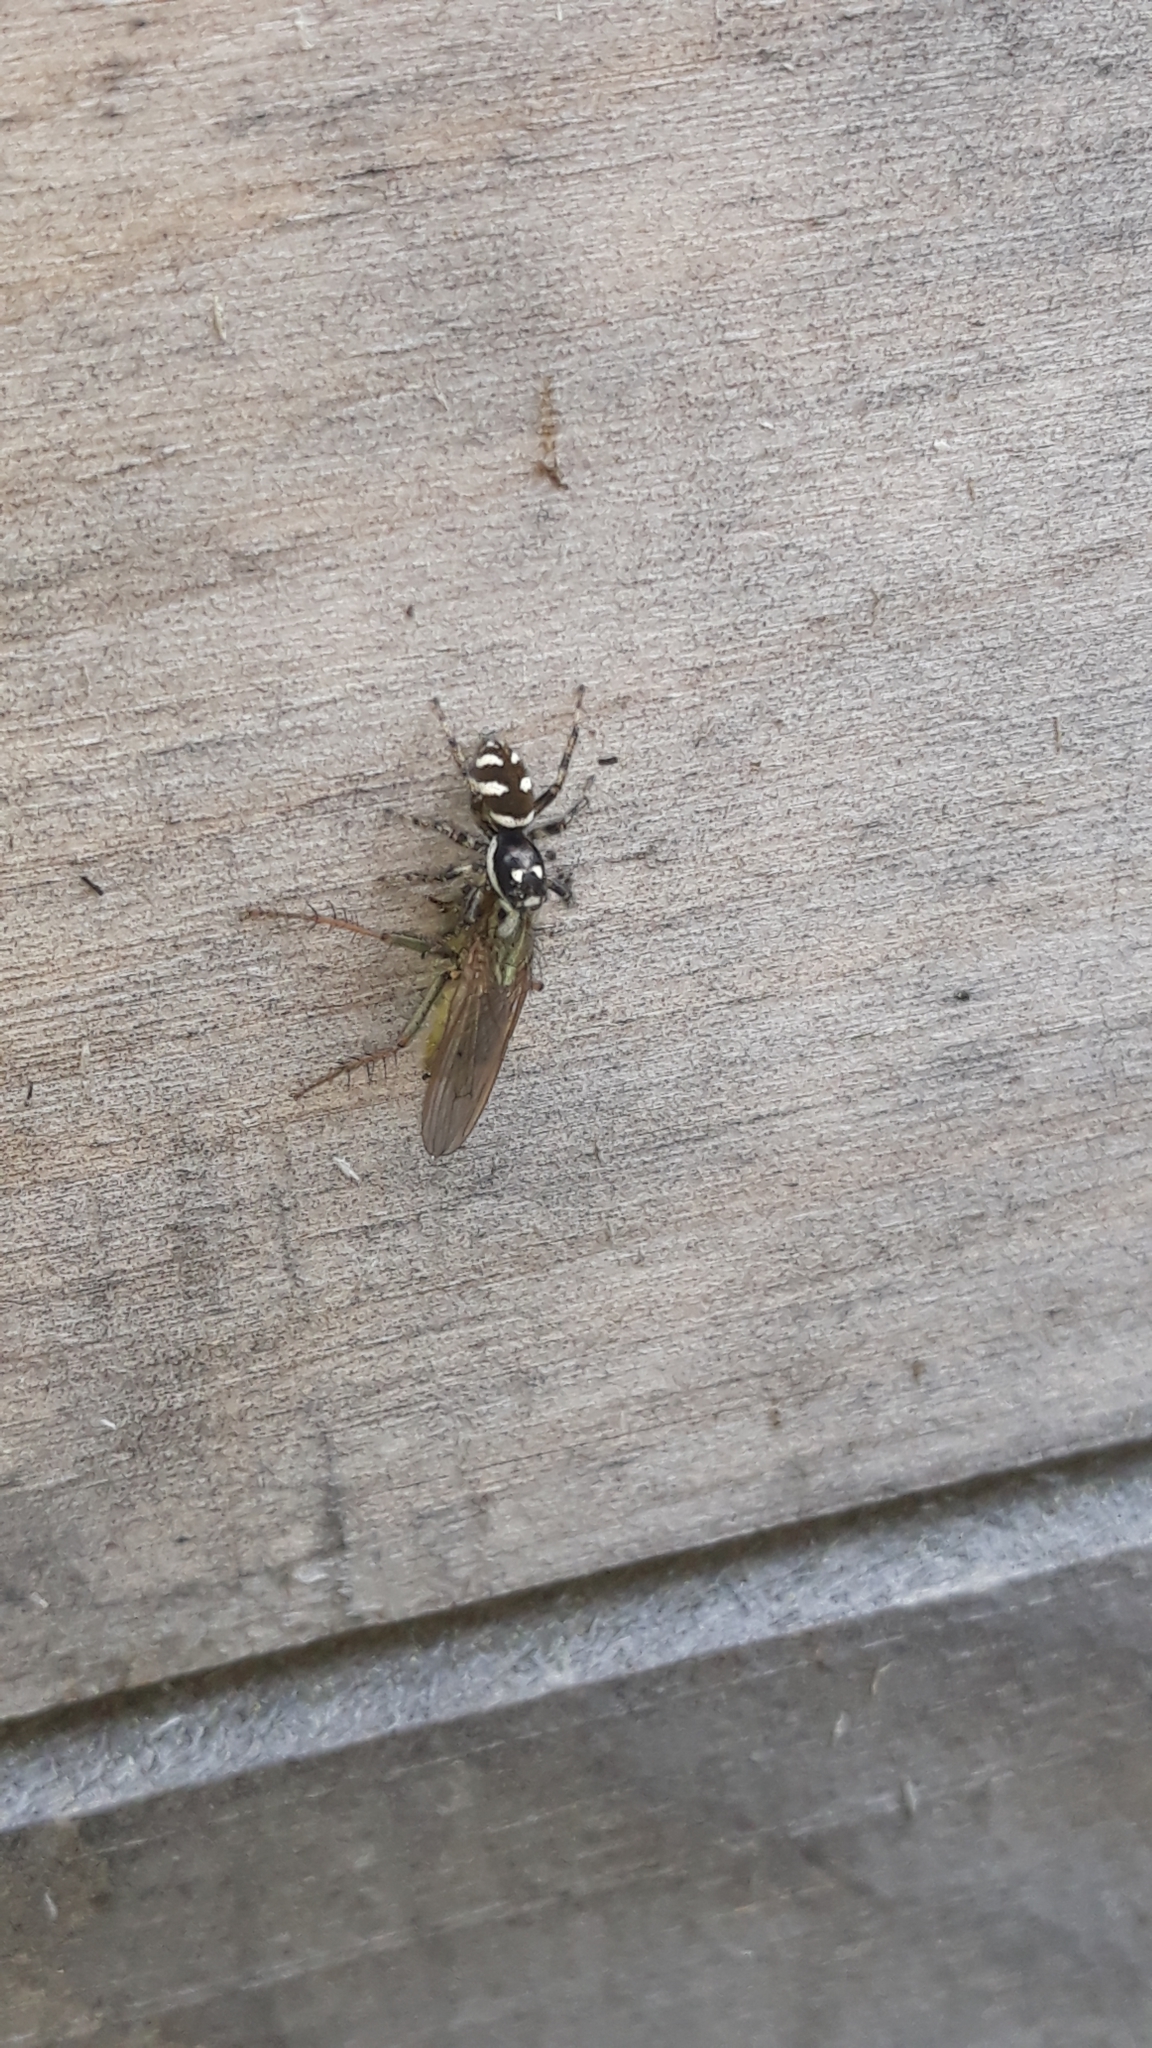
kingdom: Animalia
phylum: Arthropoda
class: Arachnida
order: Araneae
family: Salticidae
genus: Salticus
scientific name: Salticus scenicus
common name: Zebra jumper
